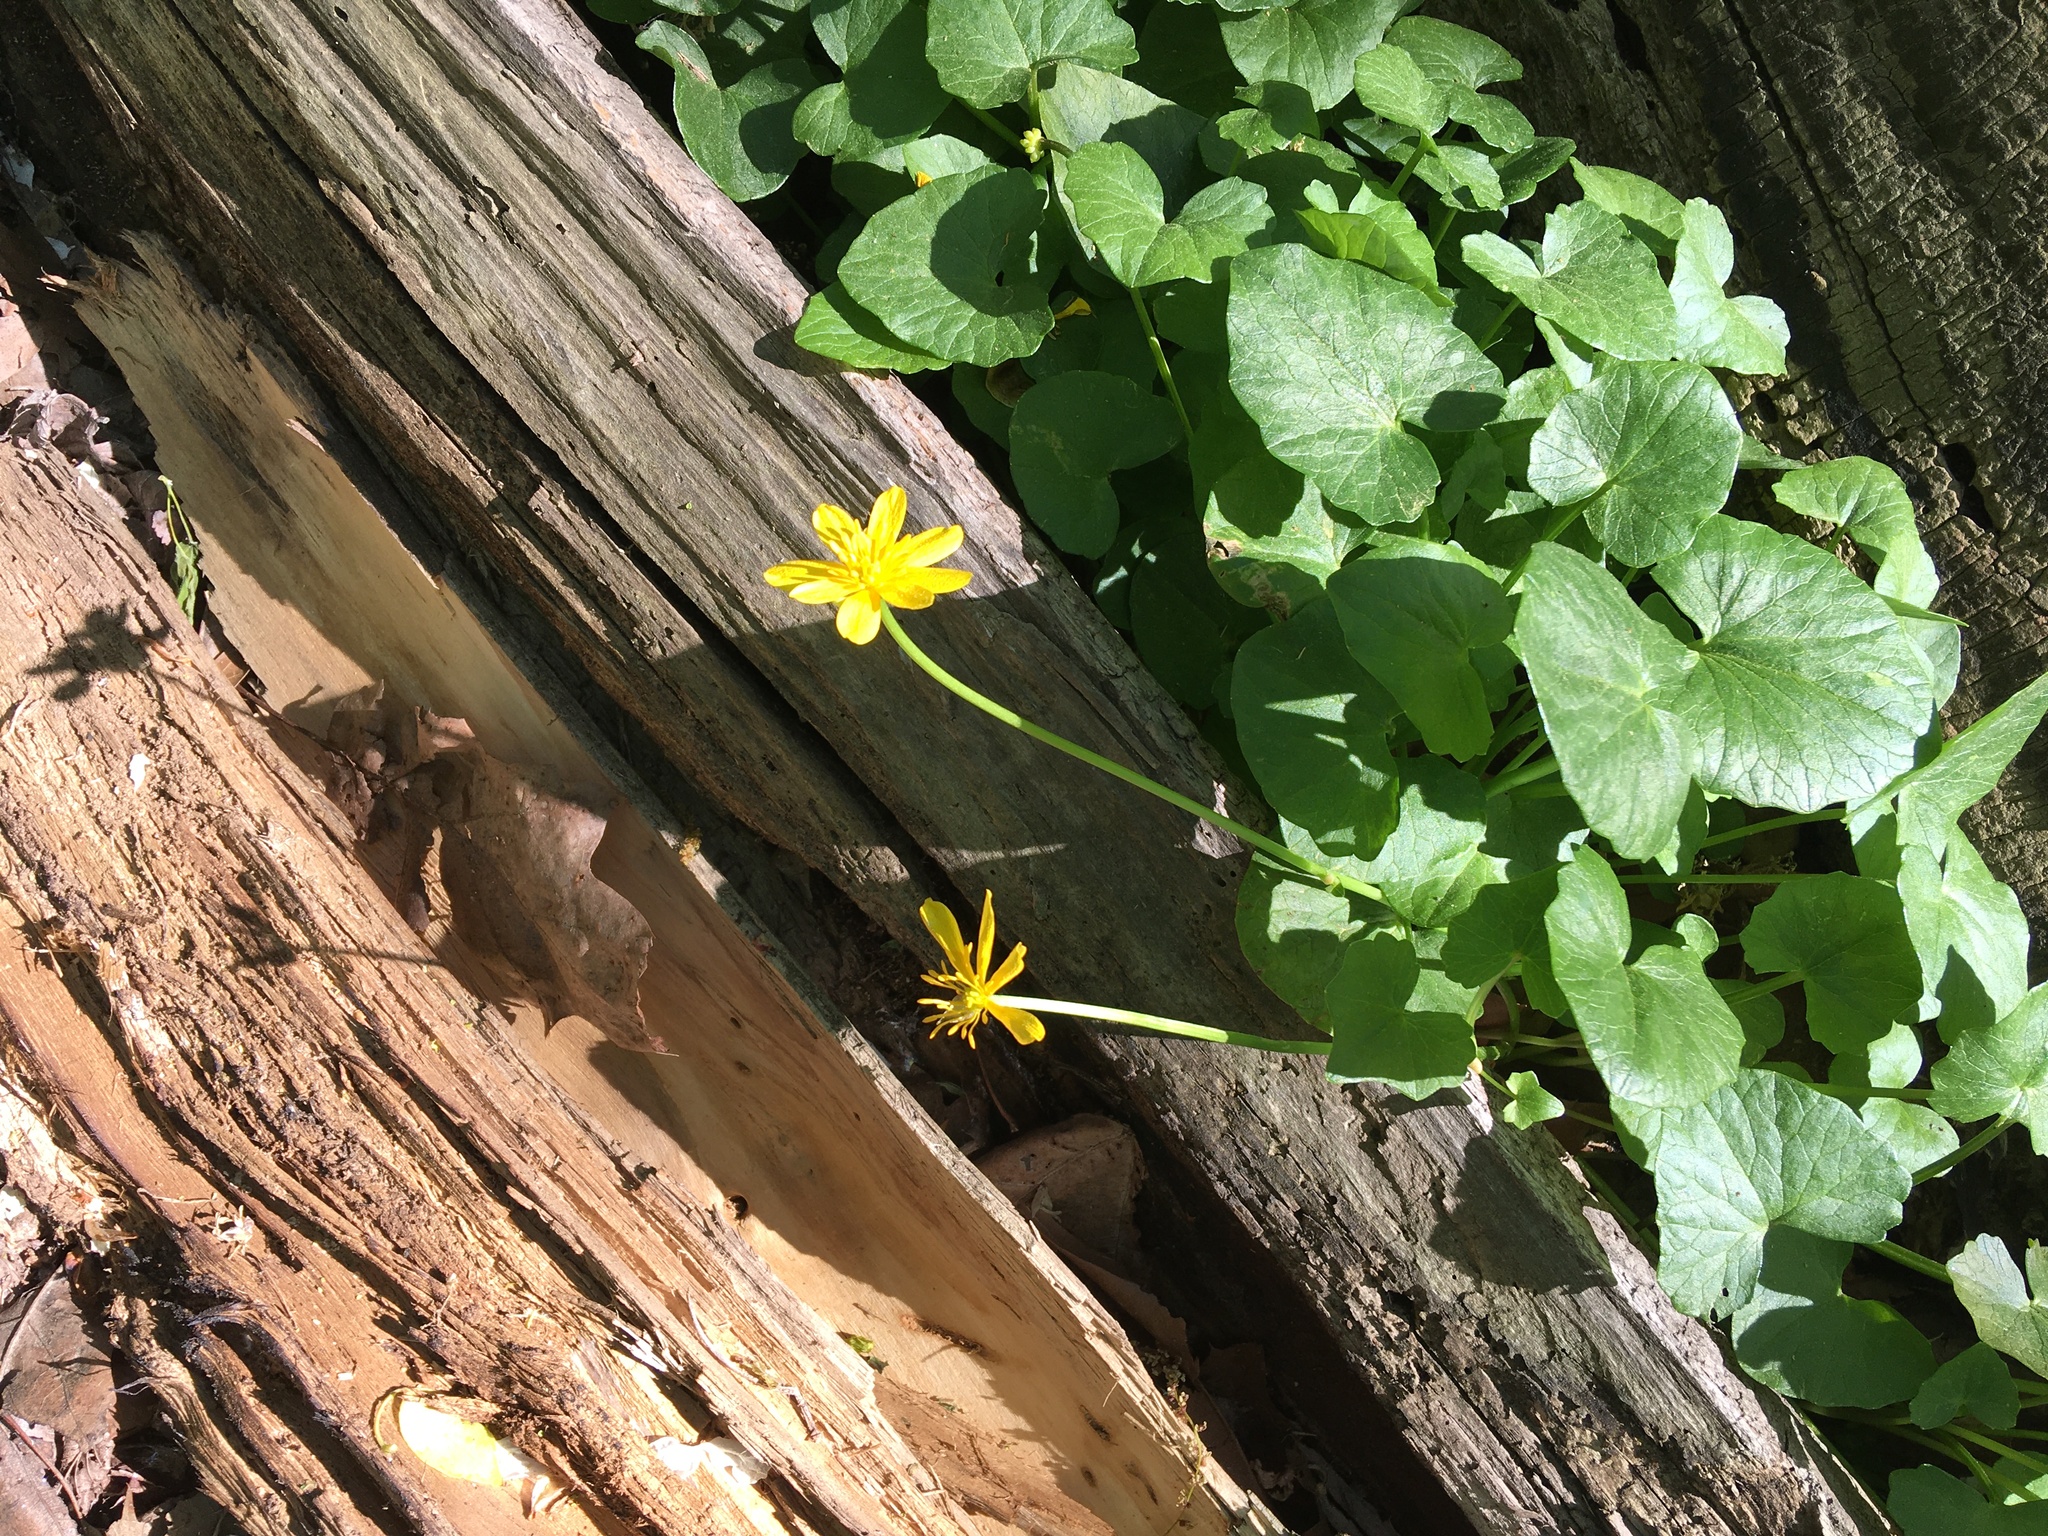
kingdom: Plantae
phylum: Tracheophyta
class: Magnoliopsida
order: Ranunculales
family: Ranunculaceae
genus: Ficaria
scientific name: Ficaria verna
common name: Lesser celandine
